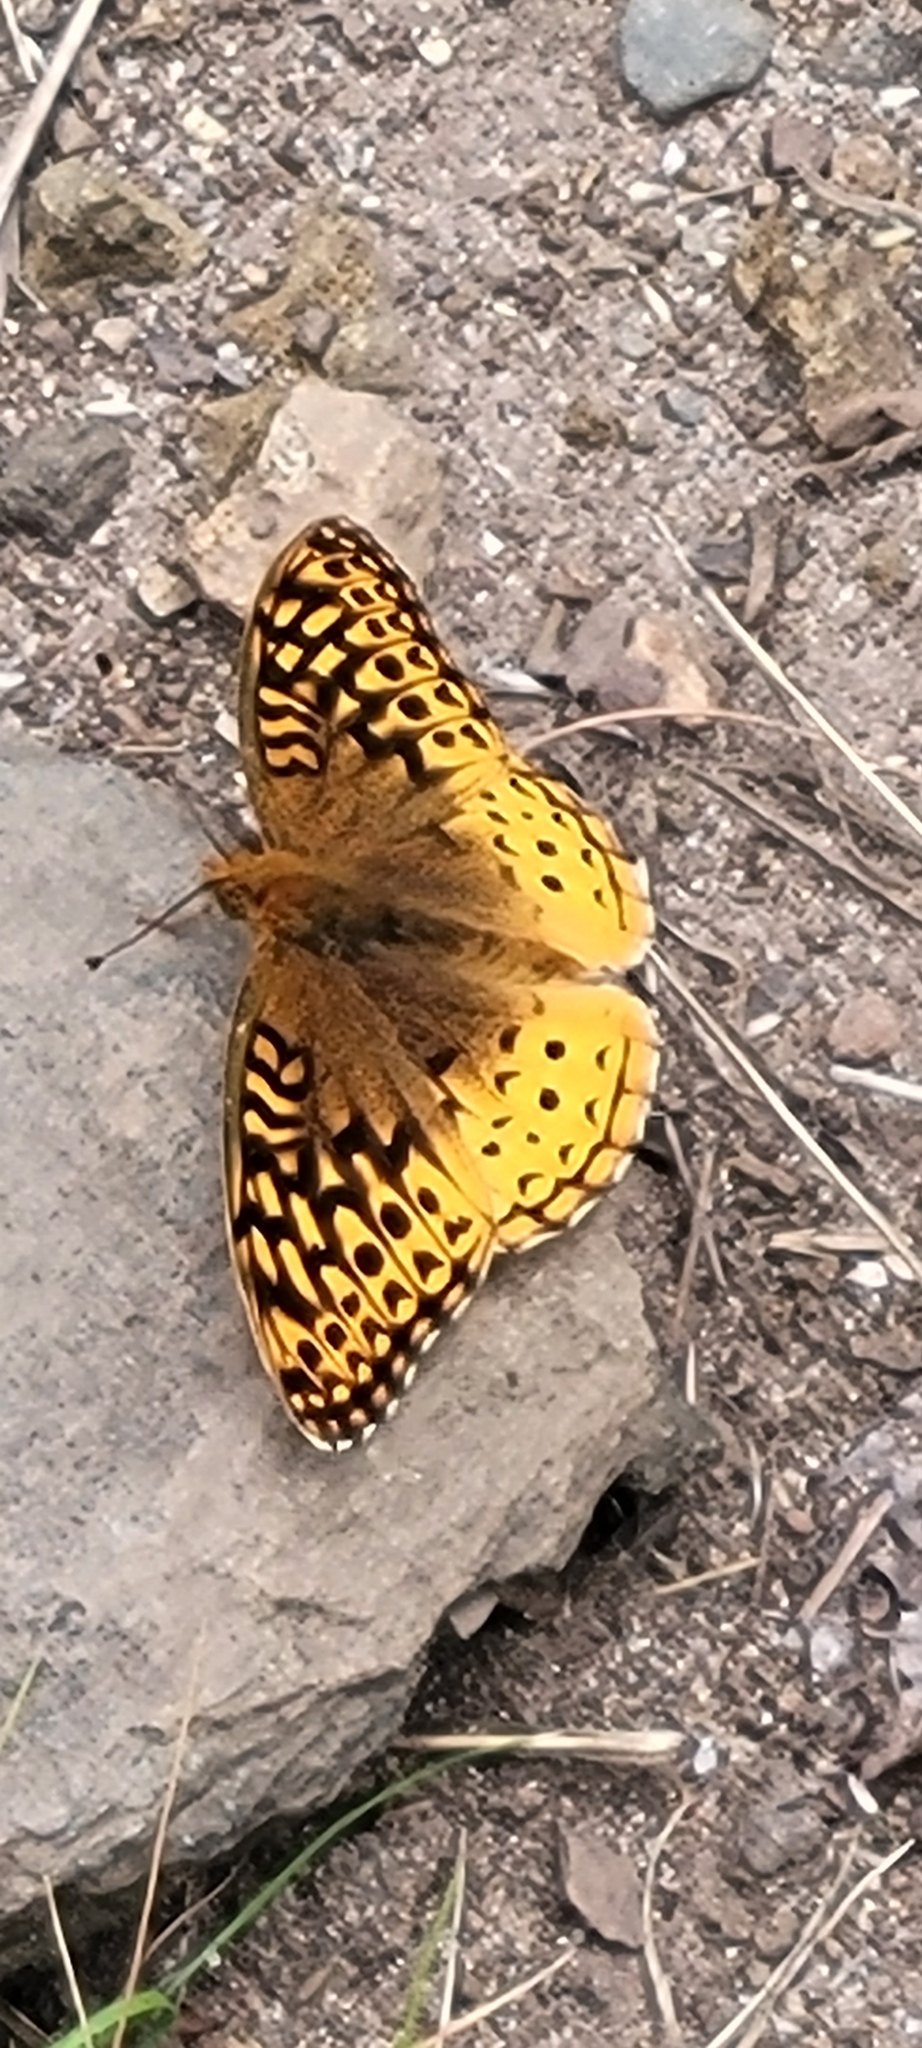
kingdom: Animalia
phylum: Arthropoda
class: Insecta
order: Lepidoptera
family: Nymphalidae
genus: Speyeria
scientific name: Speyeria cybele
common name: Great spangled fritillary
